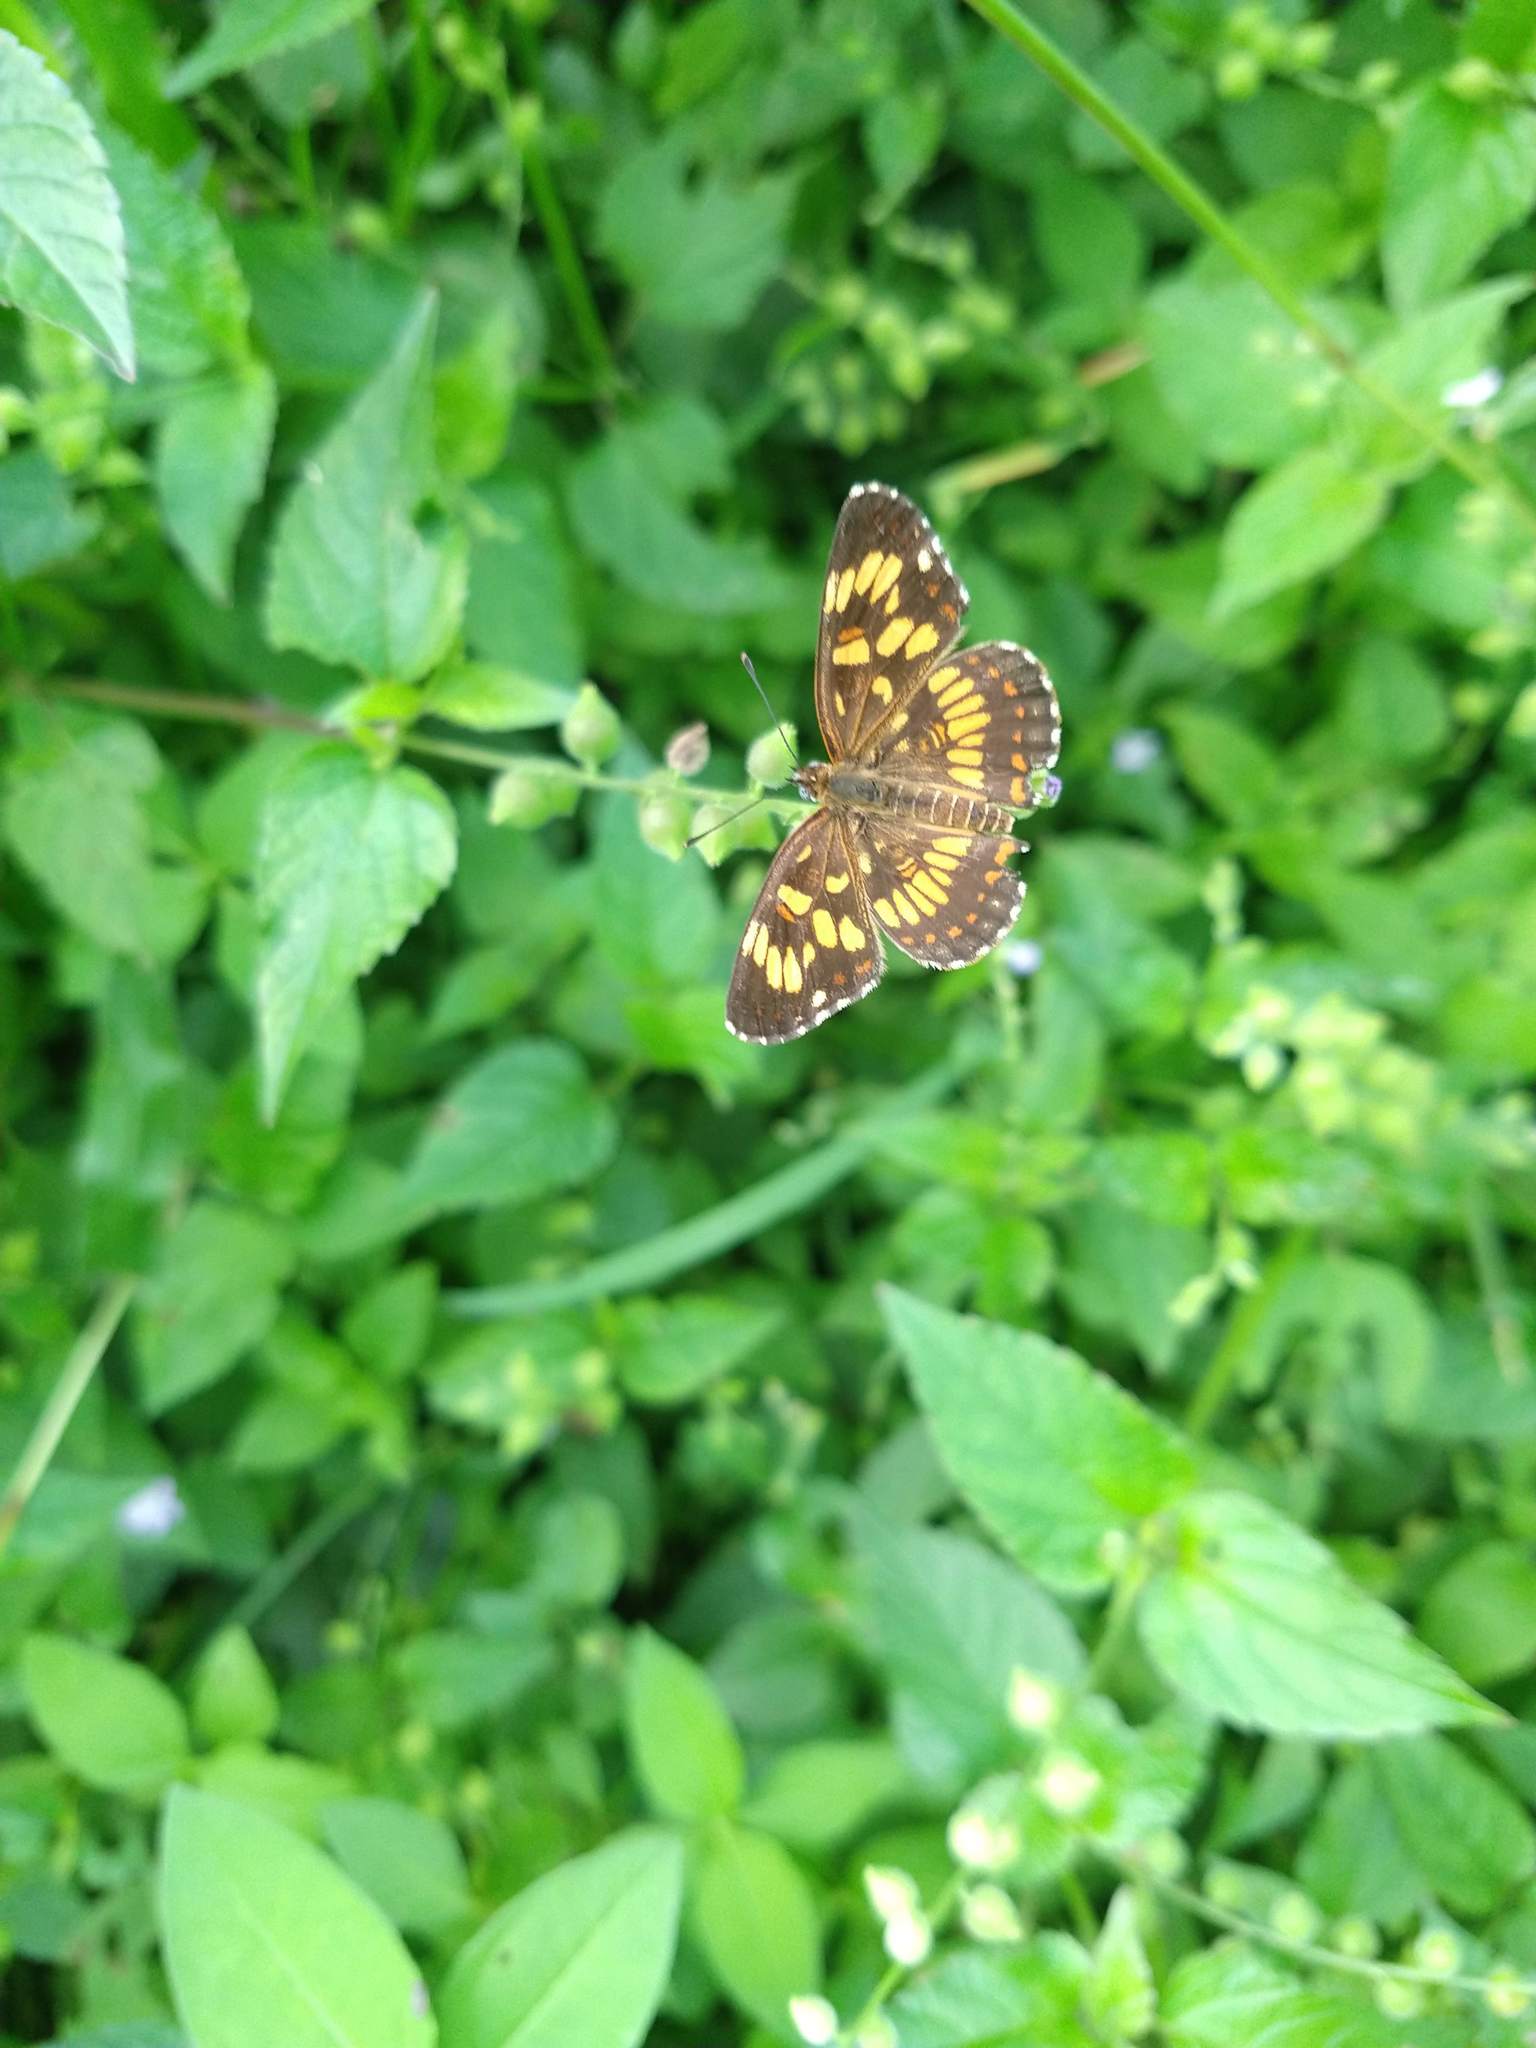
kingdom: Animalia
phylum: Arthropoda
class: Insecta
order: Lepidoptera
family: Nymphalidae
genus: Thessalia
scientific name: Thessalia theona
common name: Nymphalid moth
